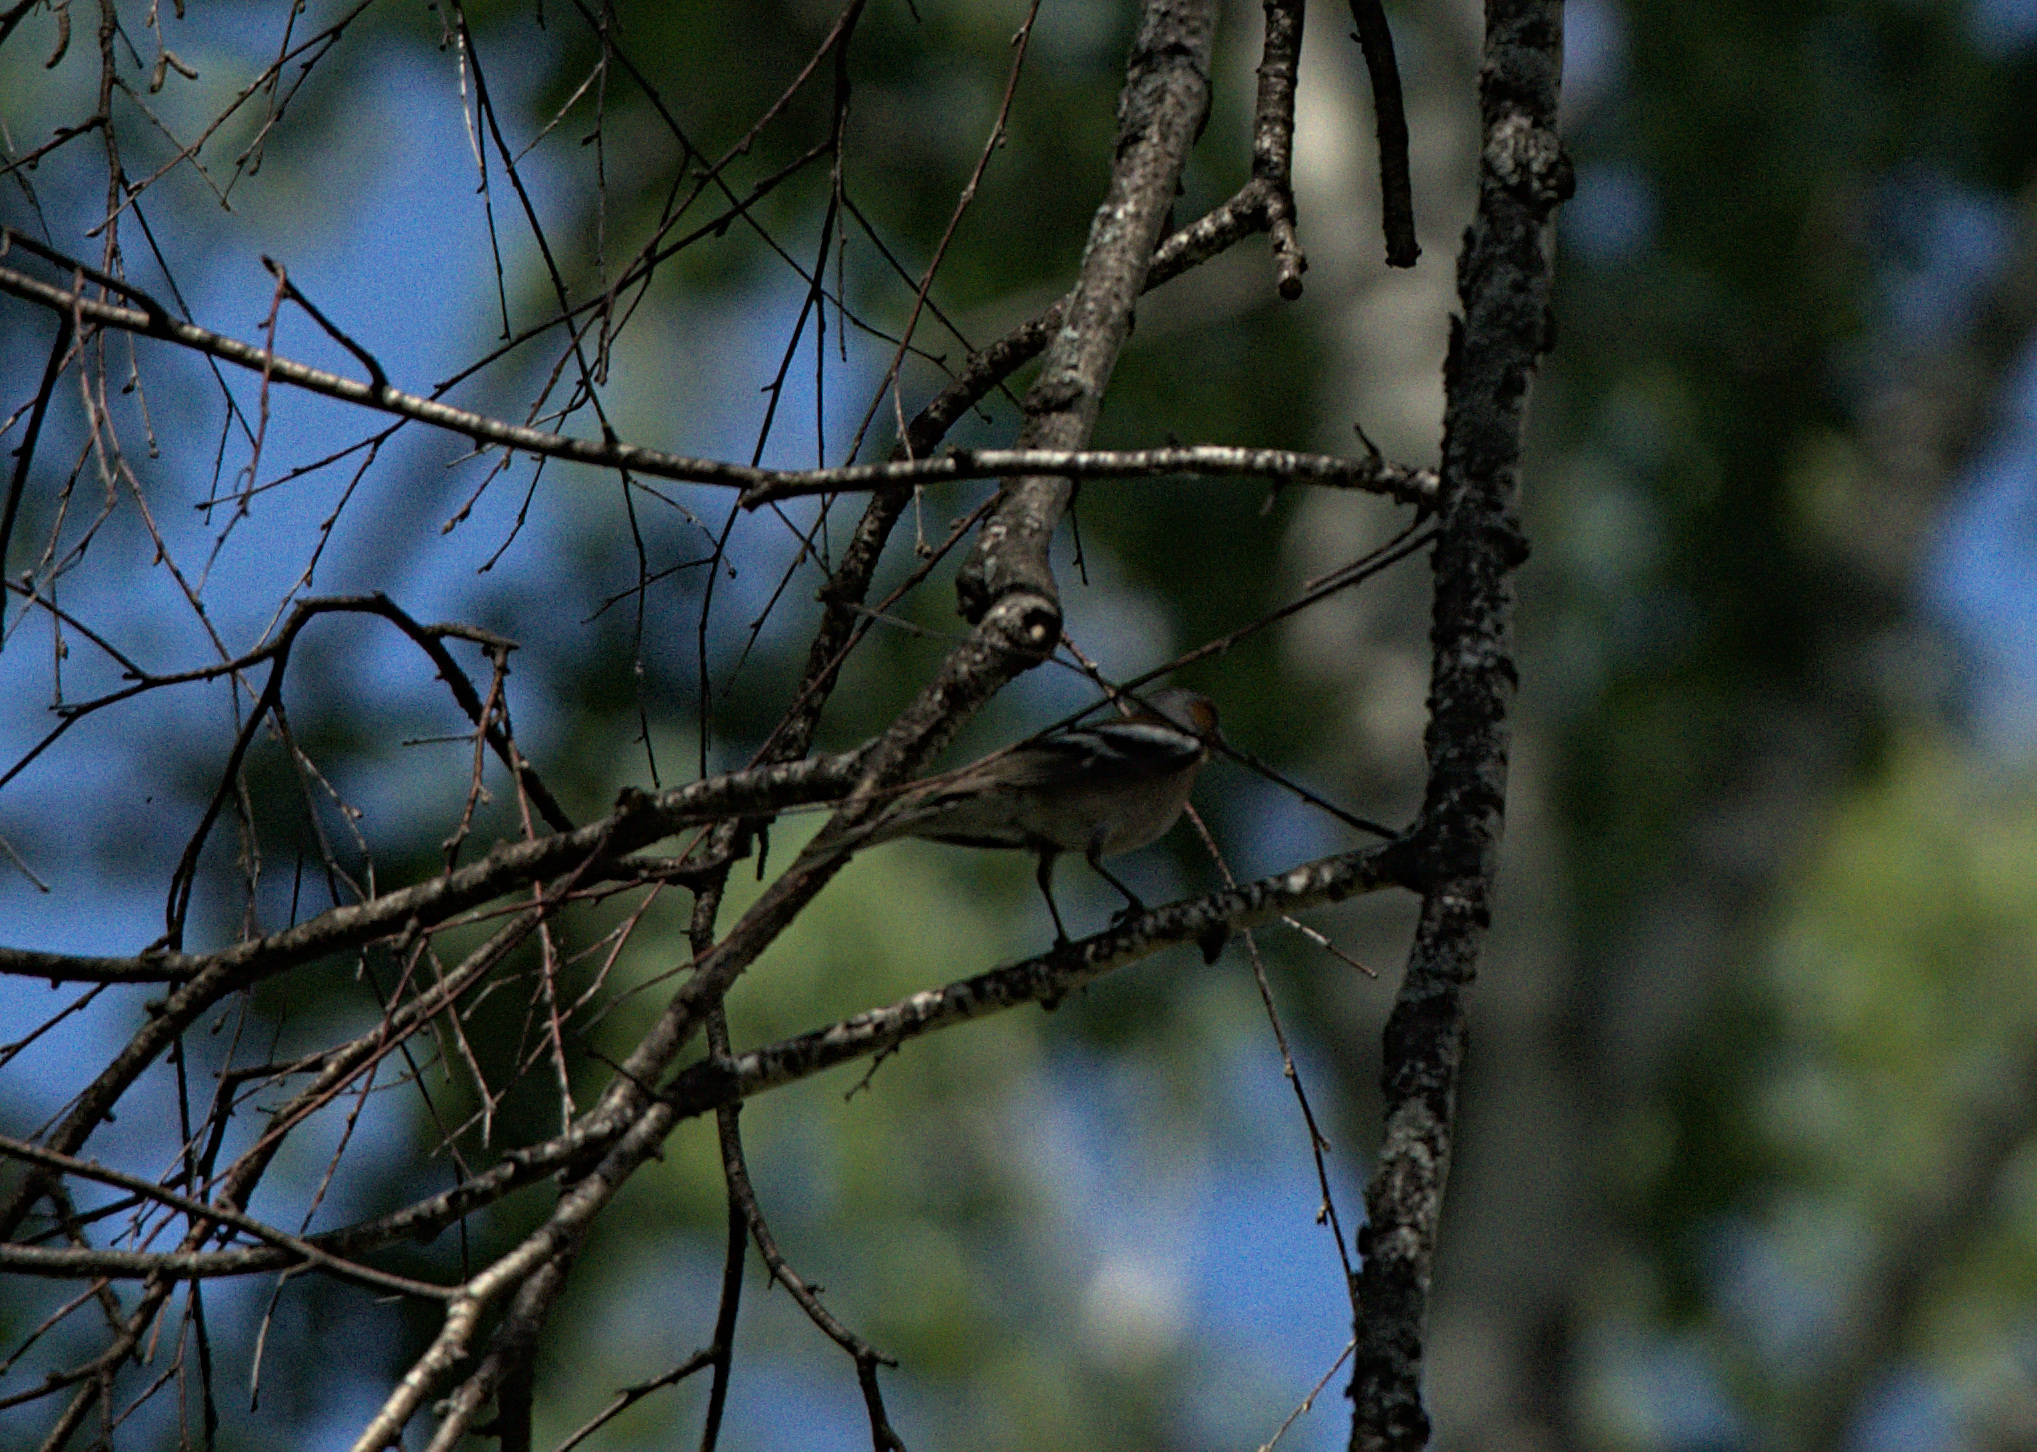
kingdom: Animalia
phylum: Chordata
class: Aves
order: Passeriformes
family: Fringillidae
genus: Fringilla
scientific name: Fringilla coelebs
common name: Common chaffinch
